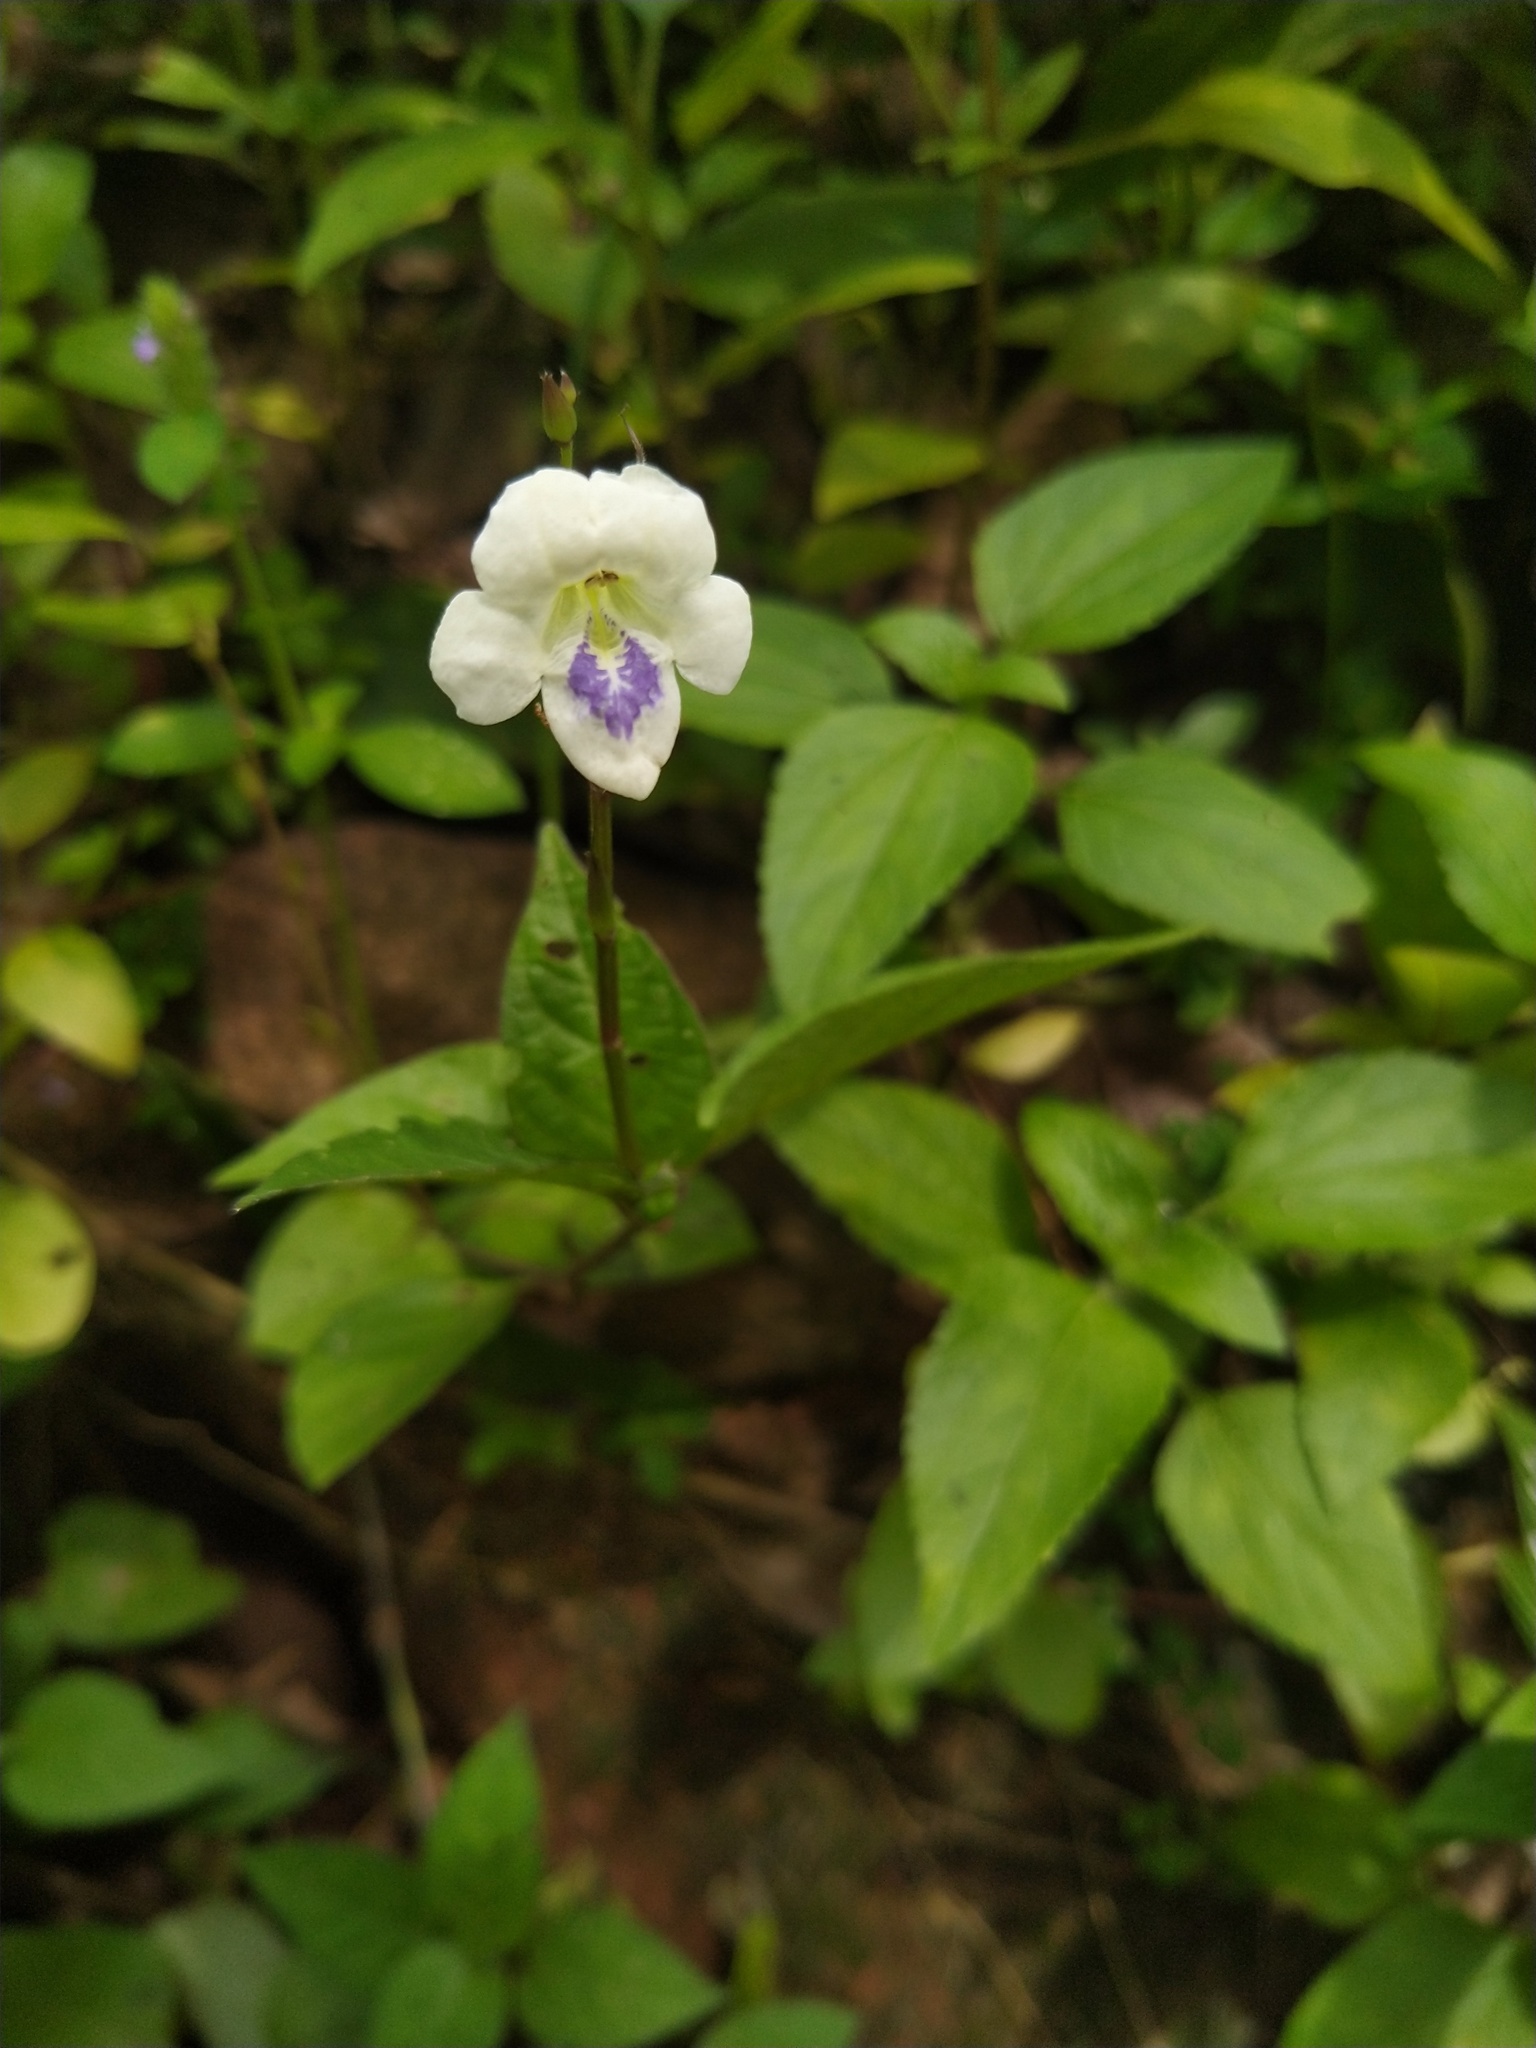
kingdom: Plantae
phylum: Tracheophyta
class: Magnoliopsida
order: Lamiales
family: Acanthaceae
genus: Asystasia
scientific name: Asystasia intrusa
